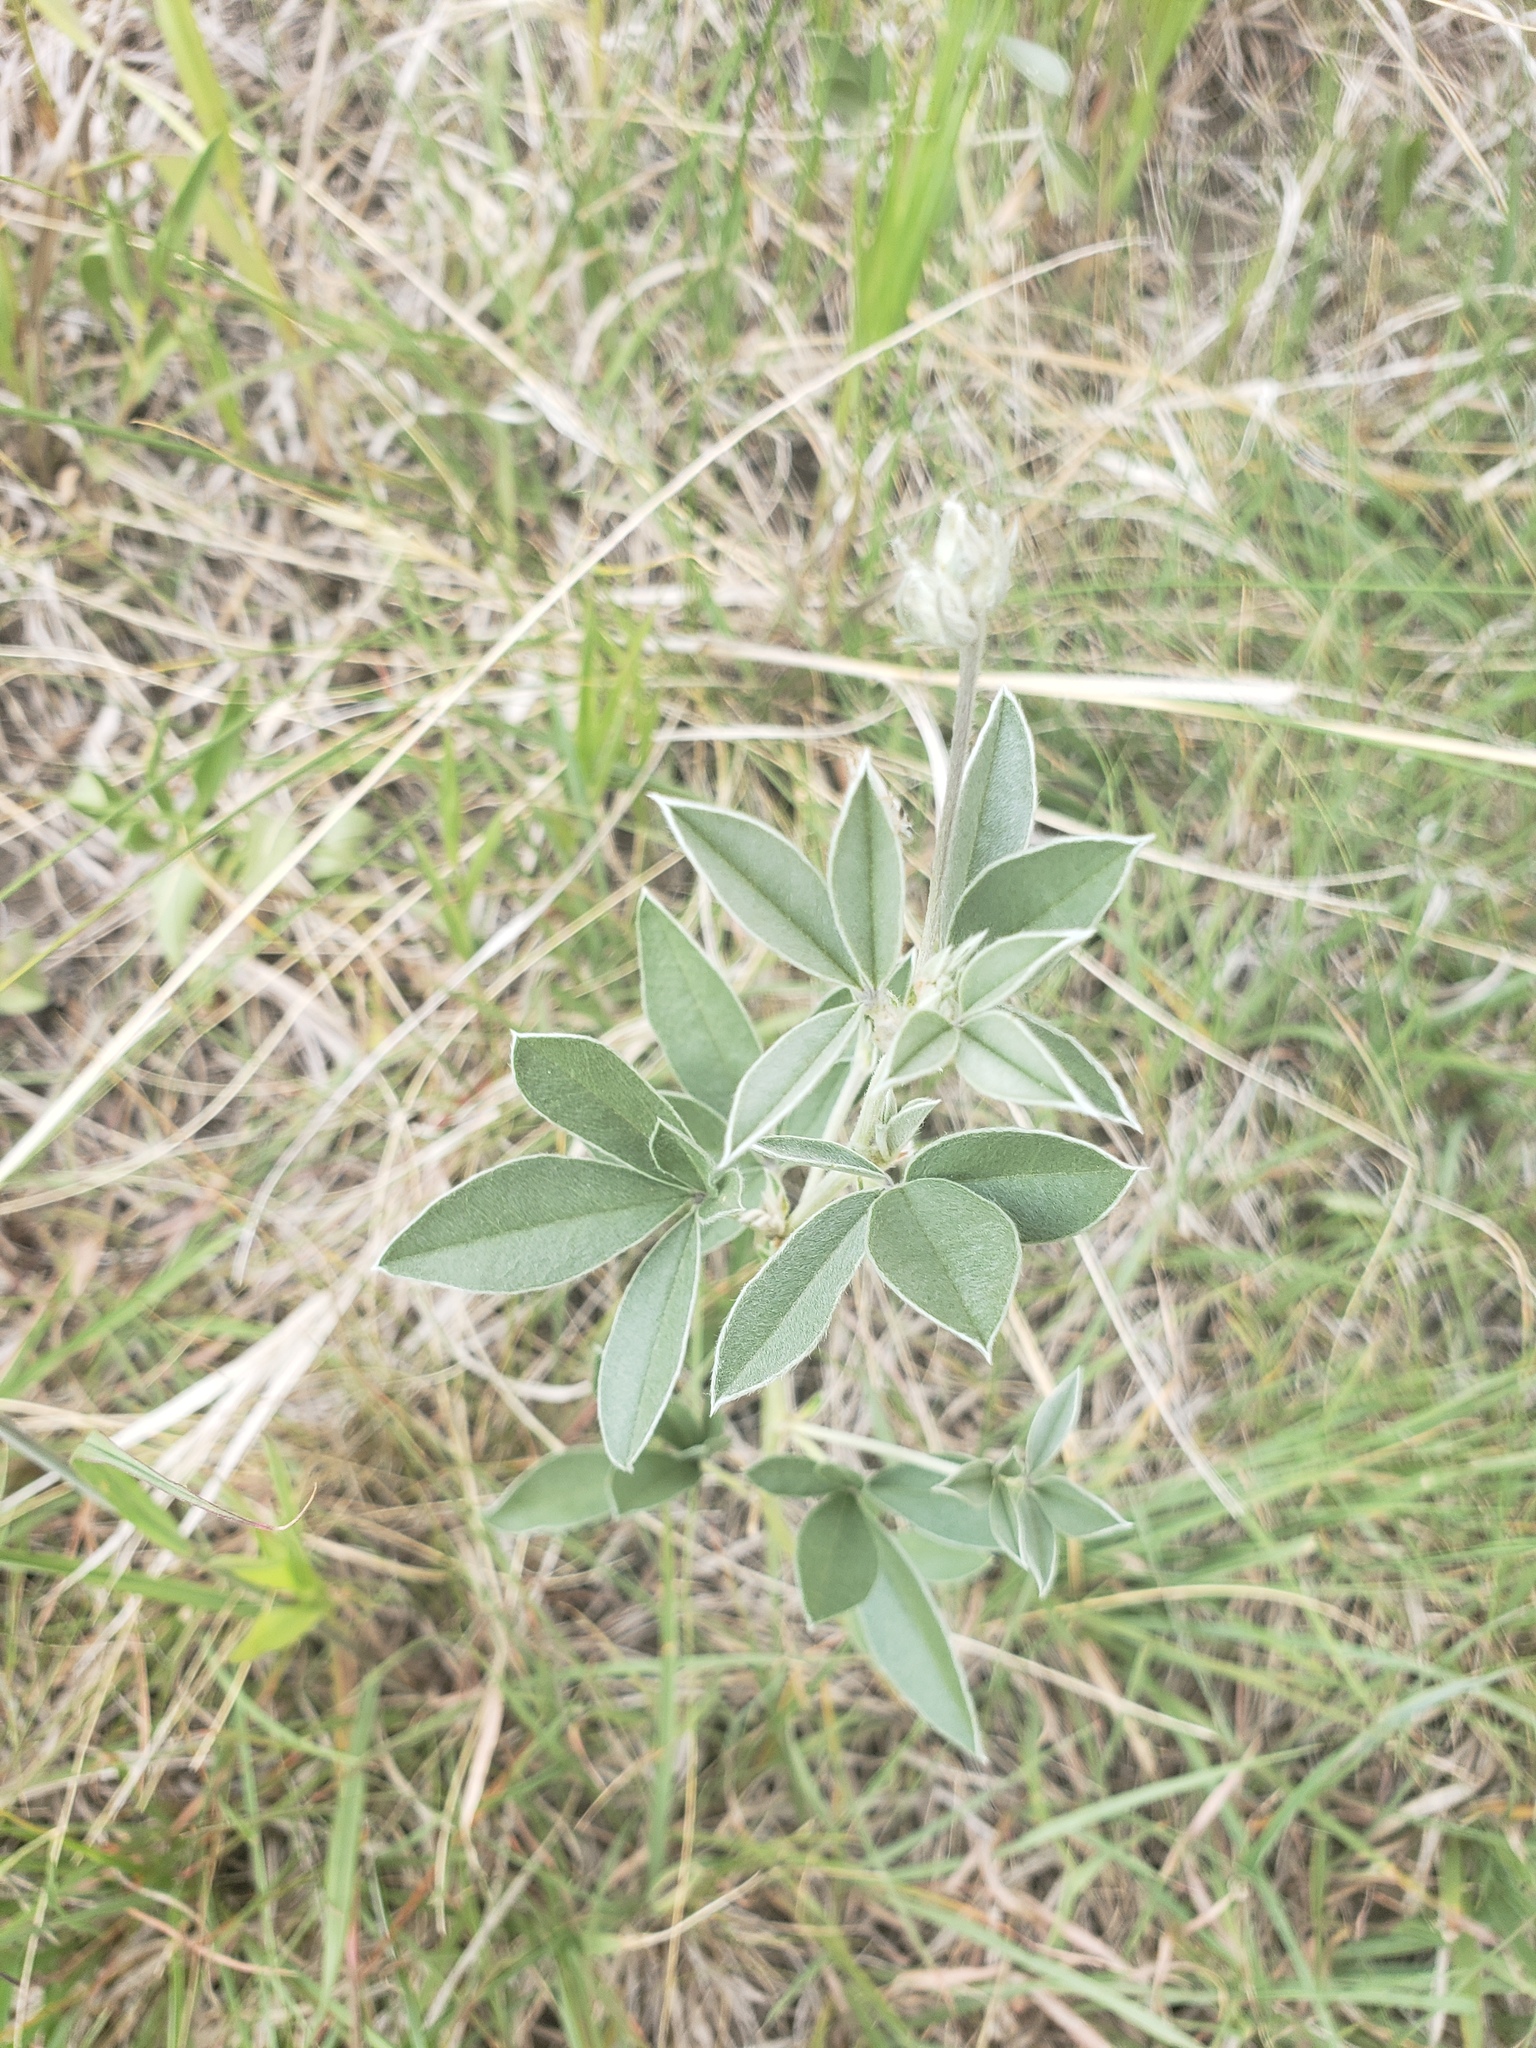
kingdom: Plantae
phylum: Tracheophyta
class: Magnoliopsida
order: Fabales
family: Fabaceae
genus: Pediomelum
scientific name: Pediomelum argophyllum
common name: Silver-leaved indian breadroot
